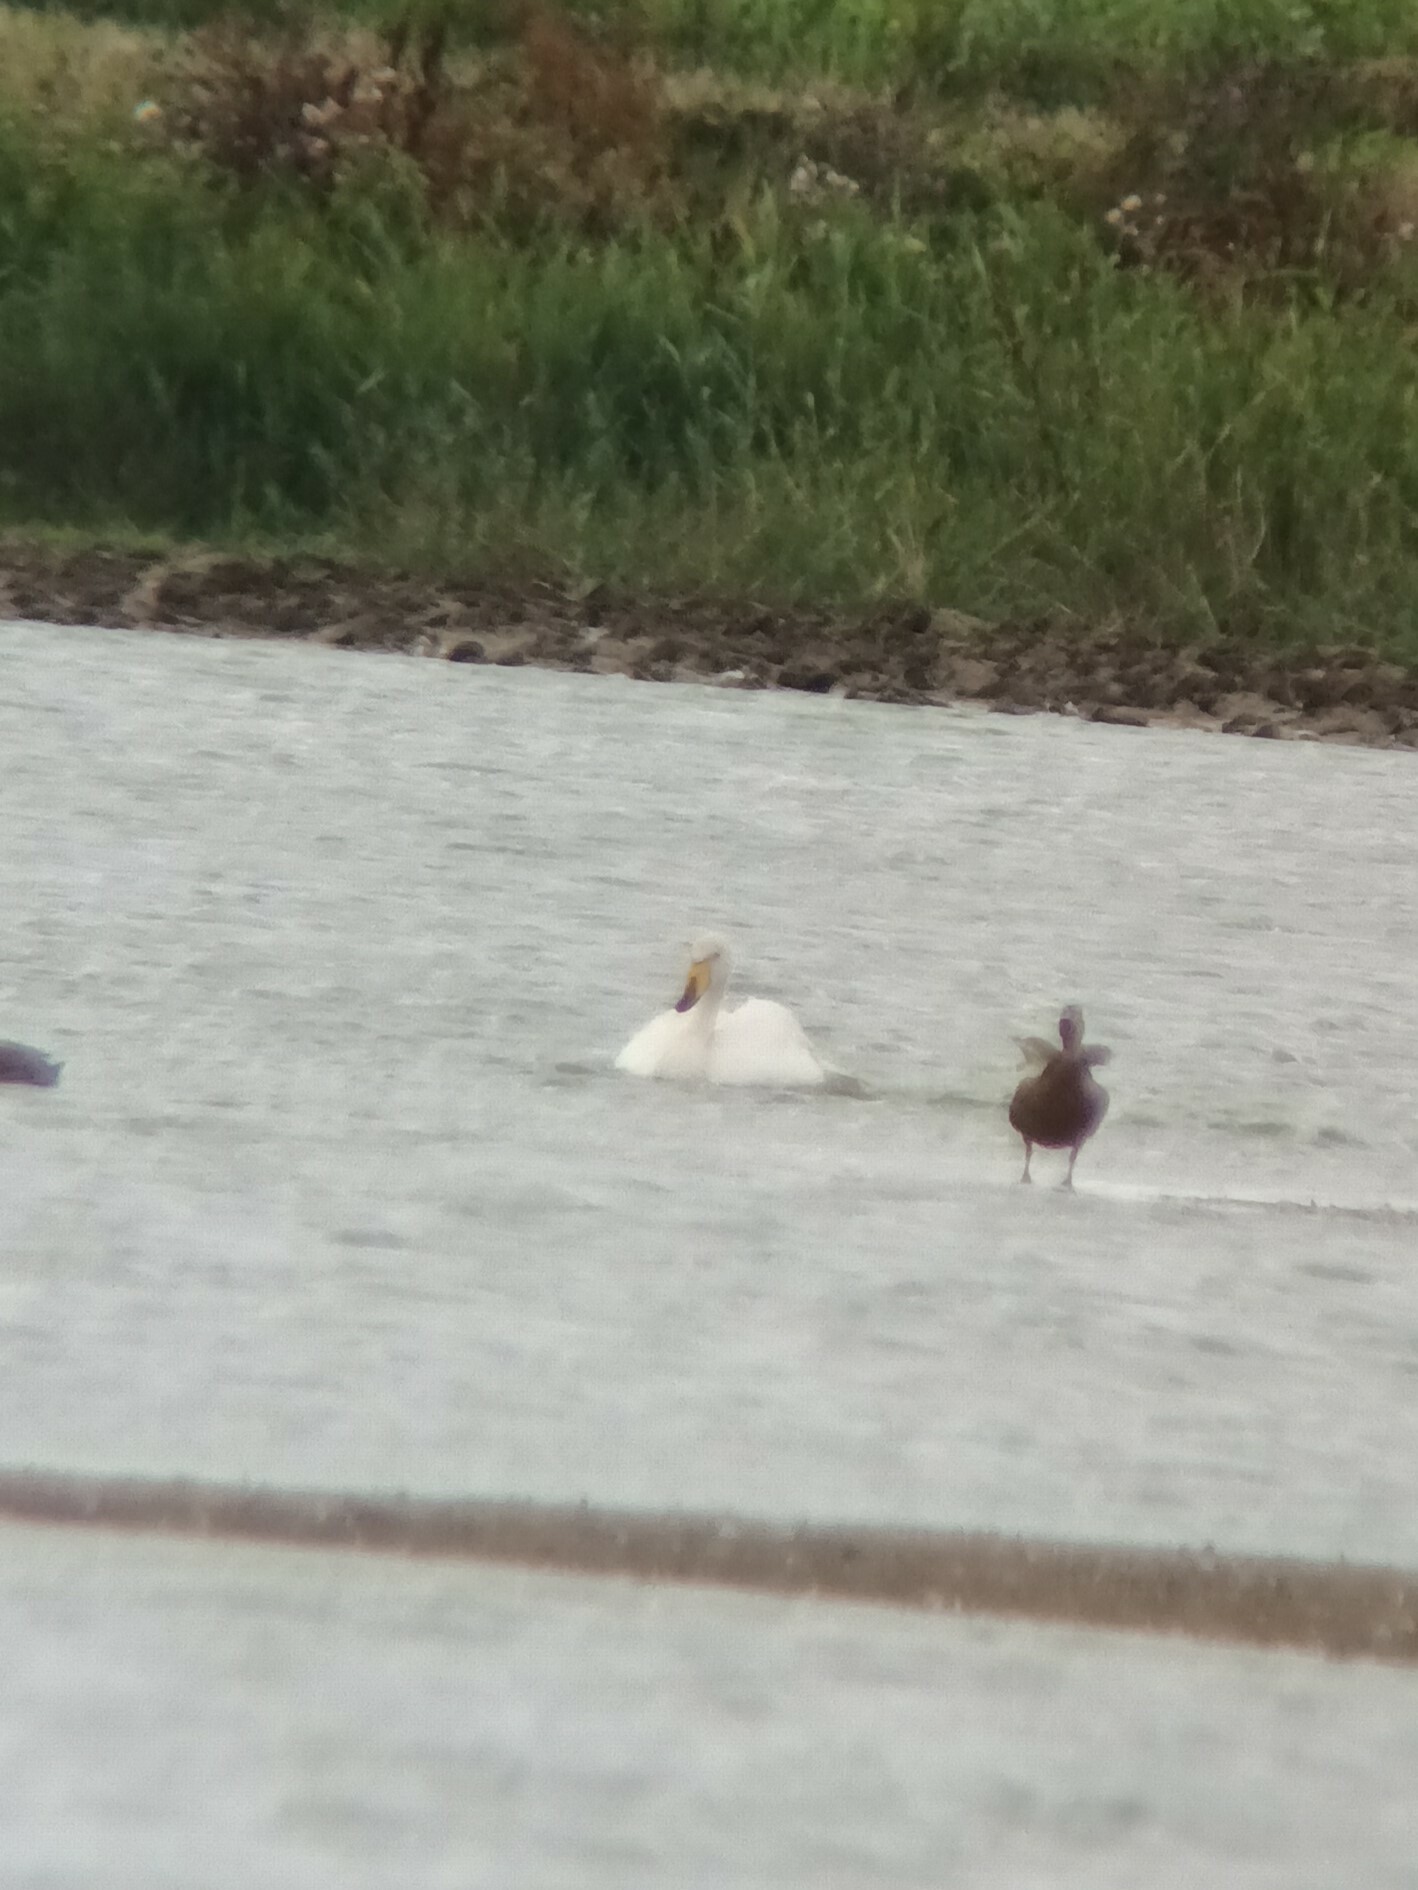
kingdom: Animalia
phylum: Chordata
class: Aves
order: Anseriformes
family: Anatidae
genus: Cygnus
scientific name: Cygnus cygnus
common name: Whooper swan
